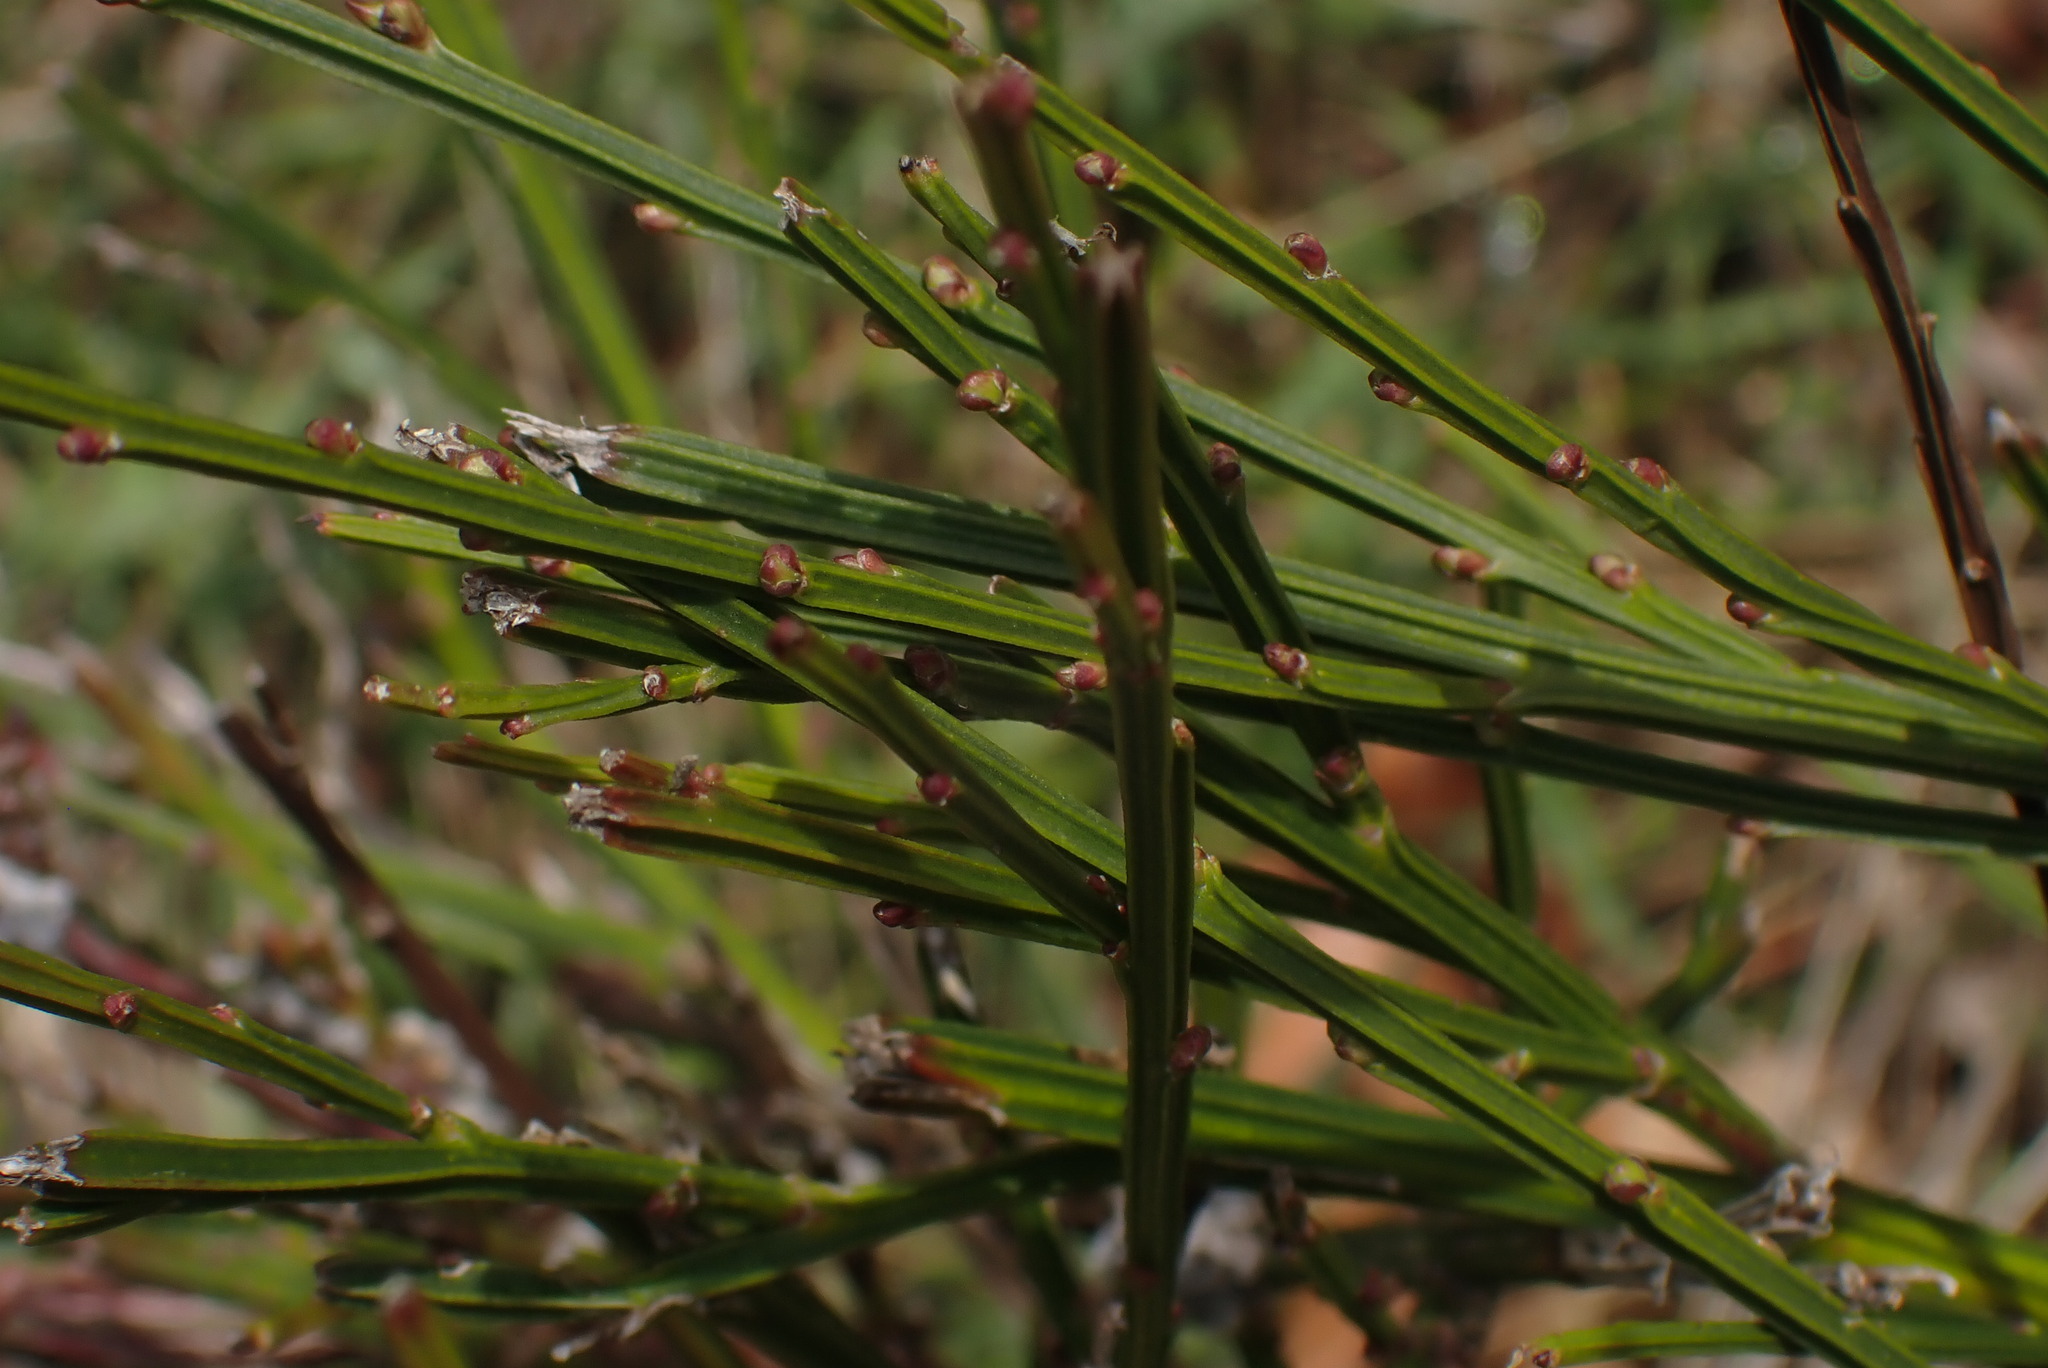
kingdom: Plantae
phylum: Tracheophyta
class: Magnoliopsida
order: Fabales
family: Fabaceae
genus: Cytisus
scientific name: Cytisus scoparius
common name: Scotch broom
